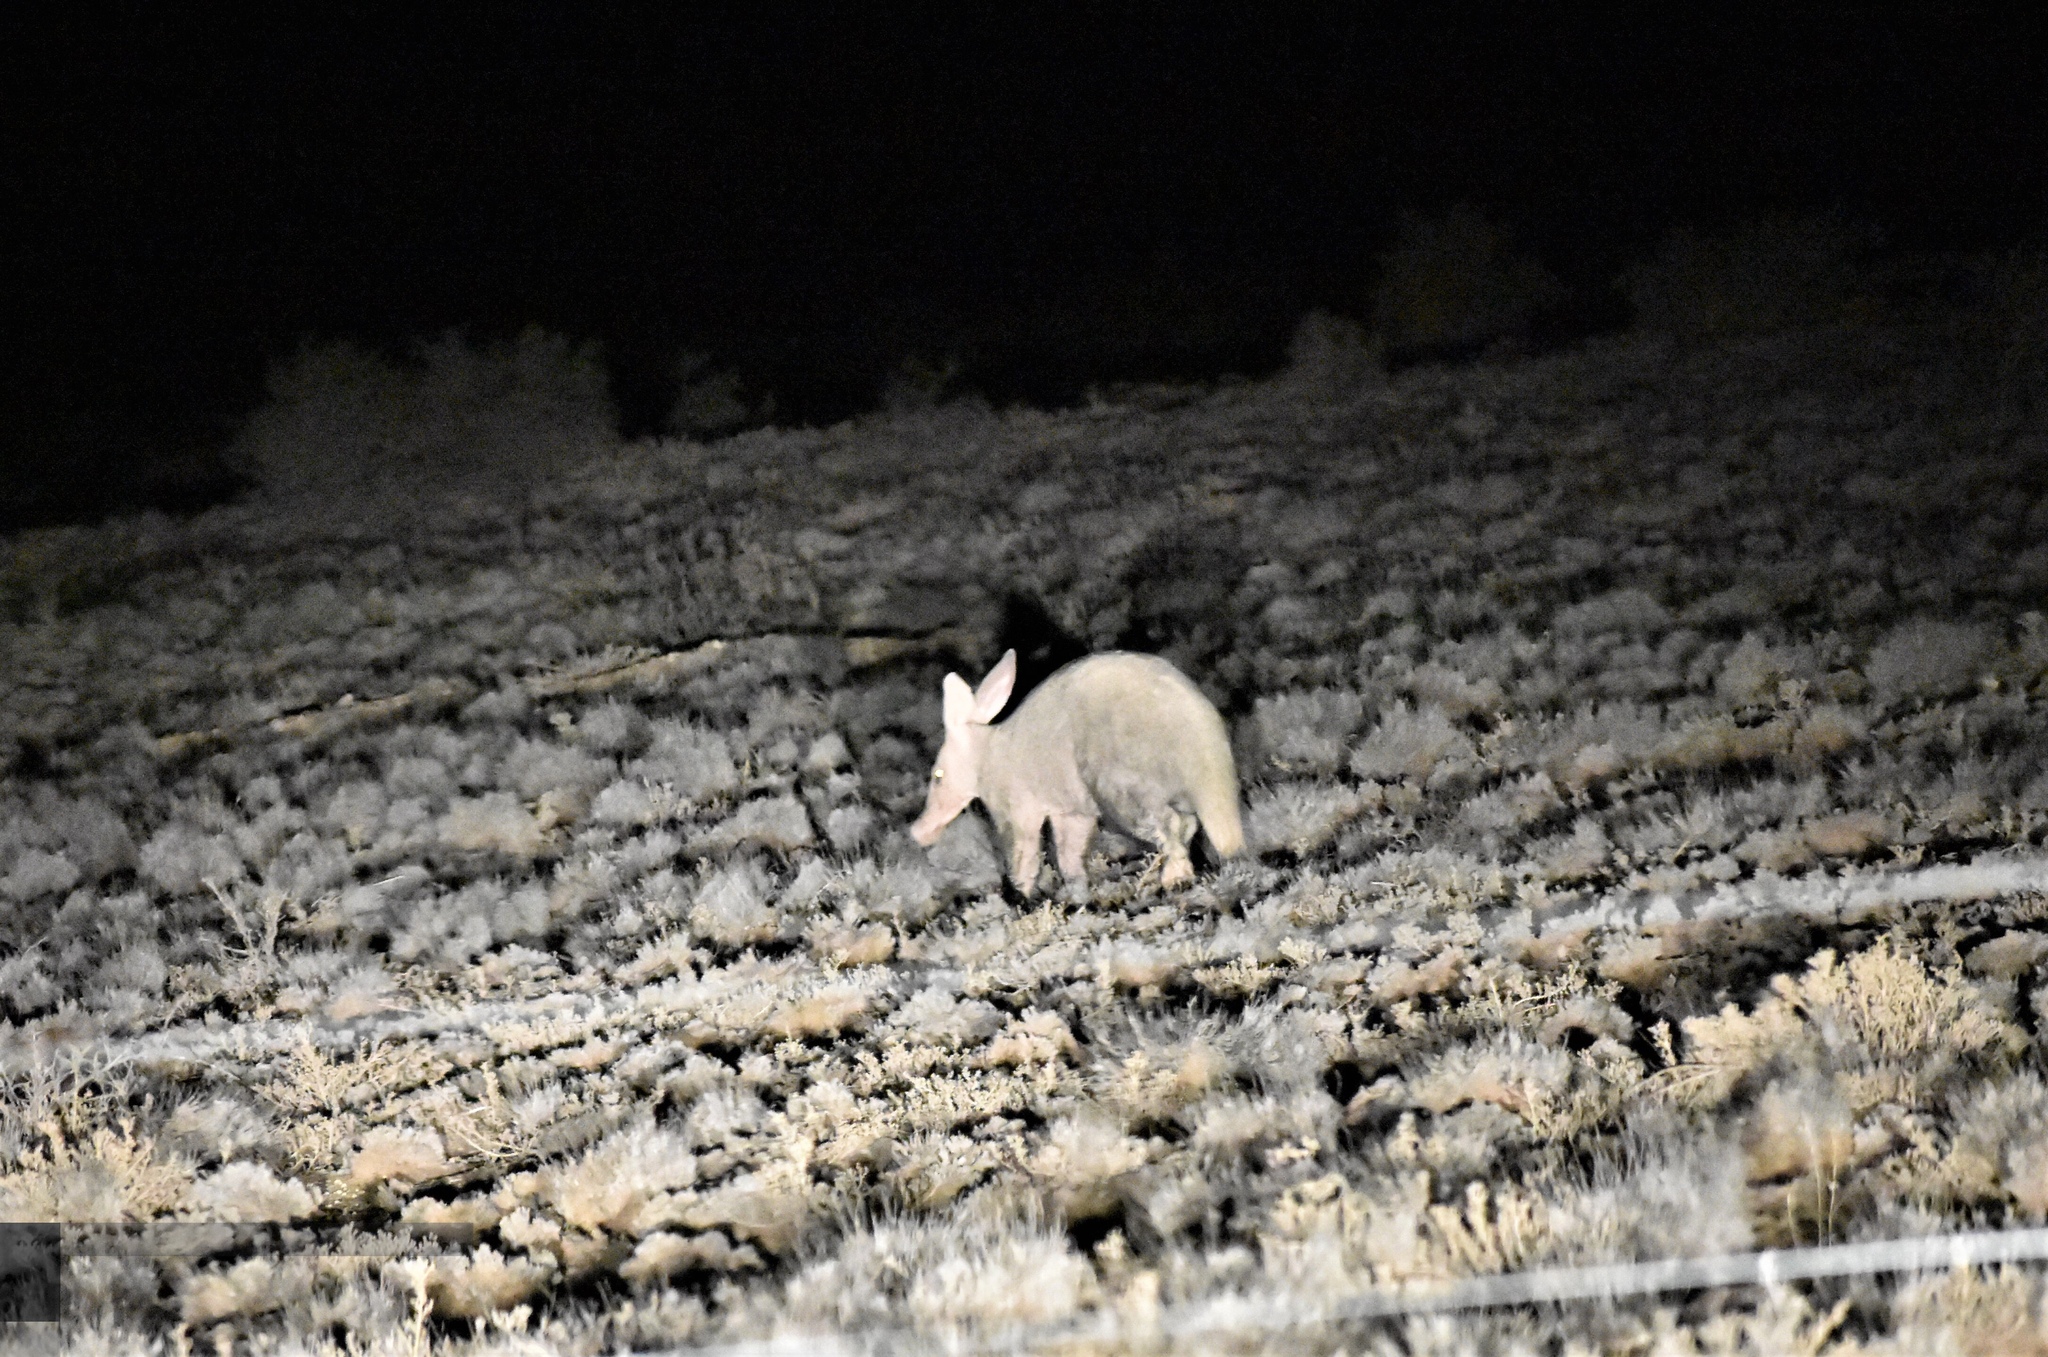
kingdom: Animalia
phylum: Chordata
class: Mammalia
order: Tubulidentata
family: Orycteropodidae
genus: Orycteropus
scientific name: Orycteropus afer
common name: Aardvark
